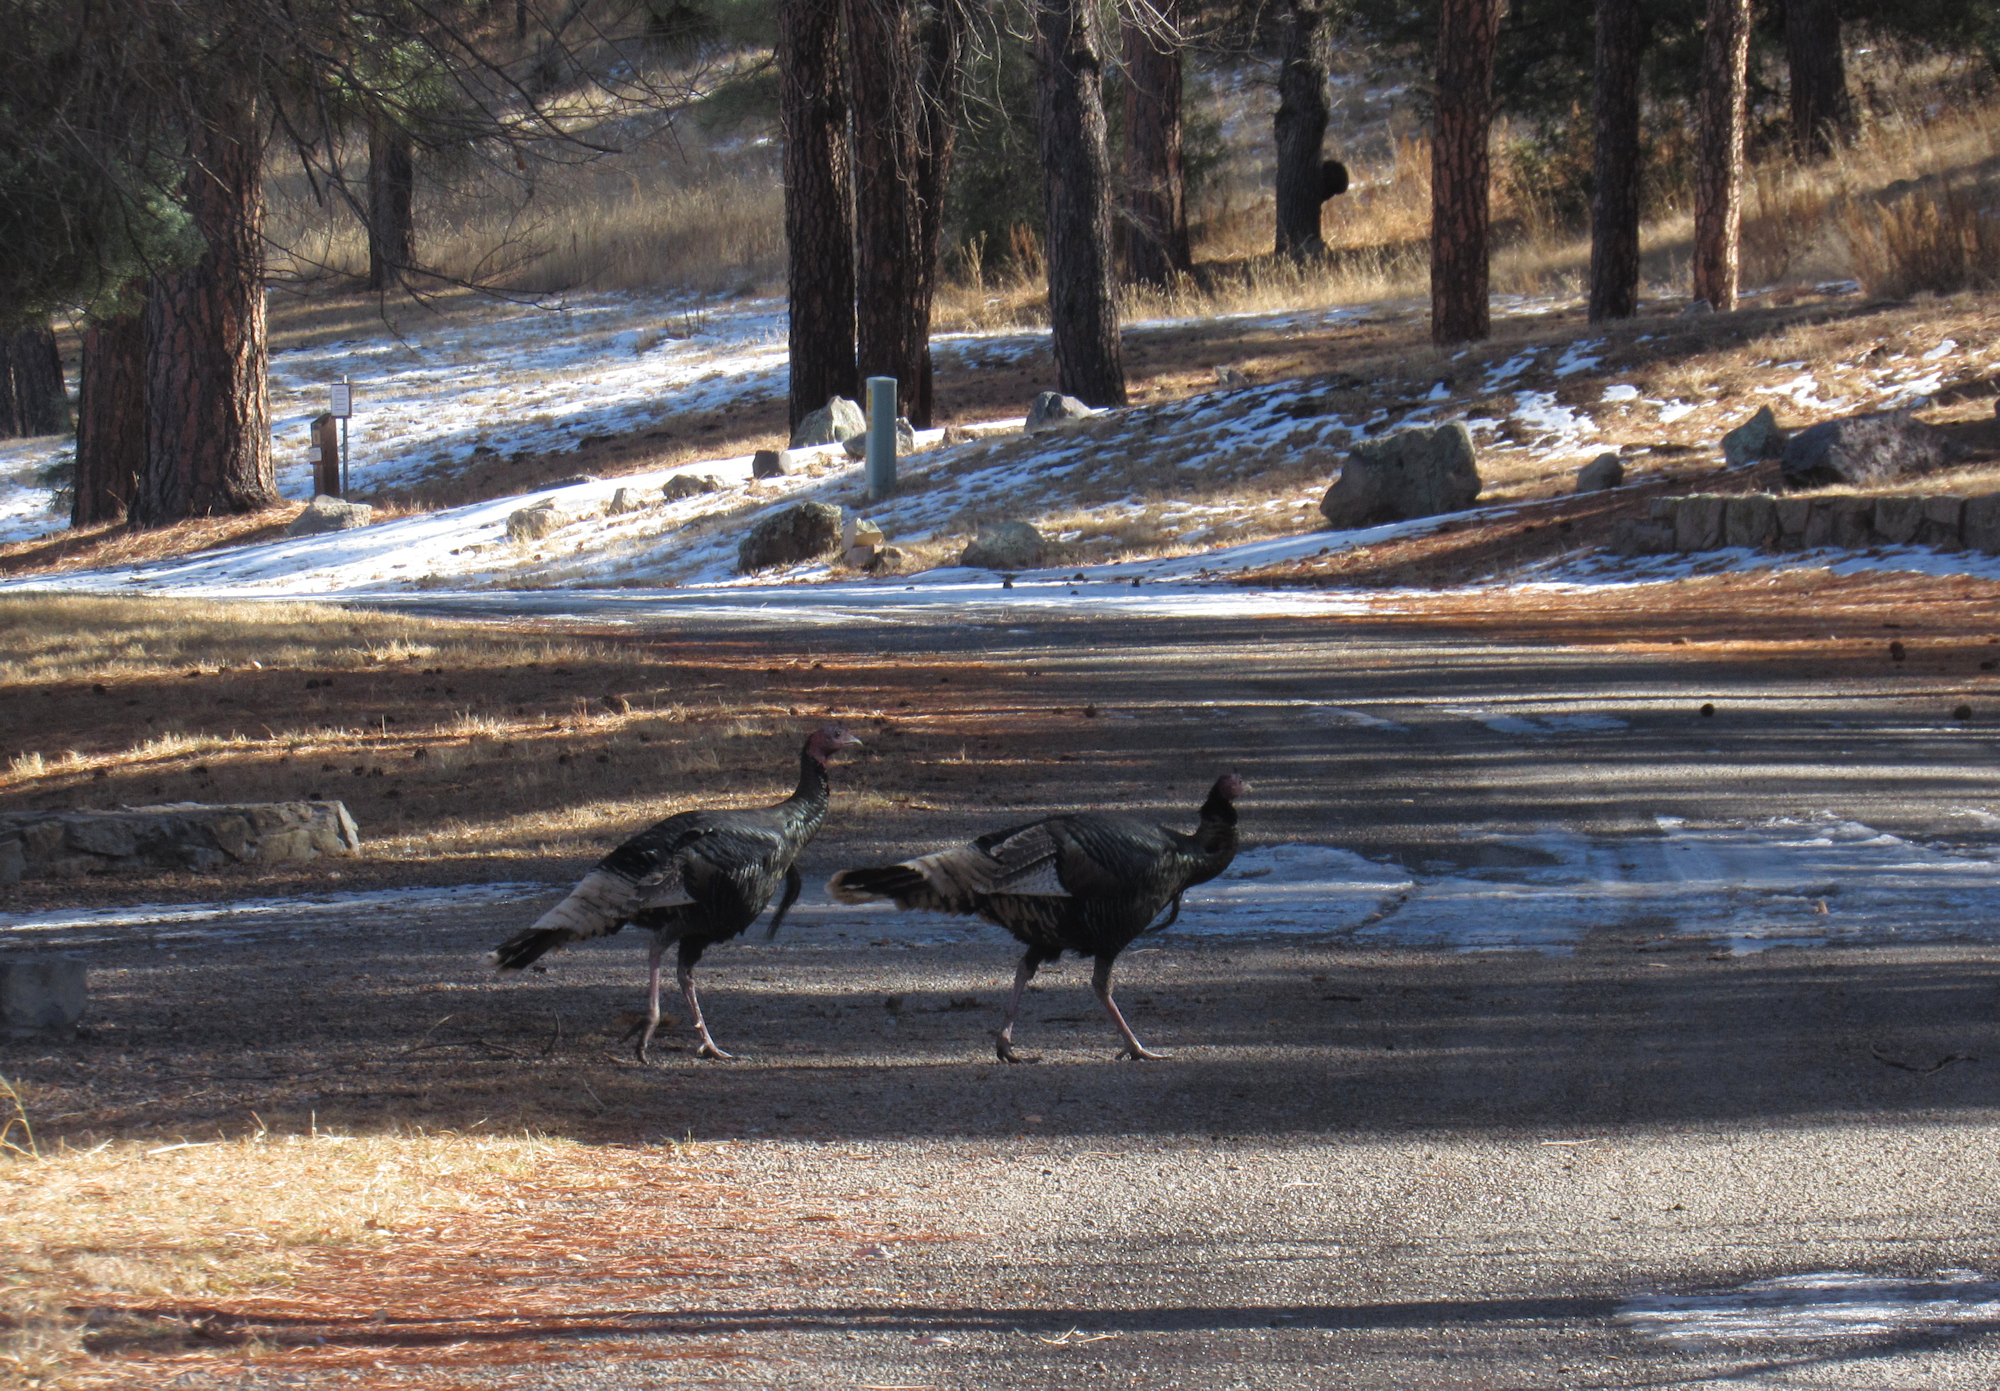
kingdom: Animalia
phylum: Chordata
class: Aves
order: Galliformes
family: Phasianidae
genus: Meleagris
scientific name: Meleagris gallopavo
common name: Wild turkey
